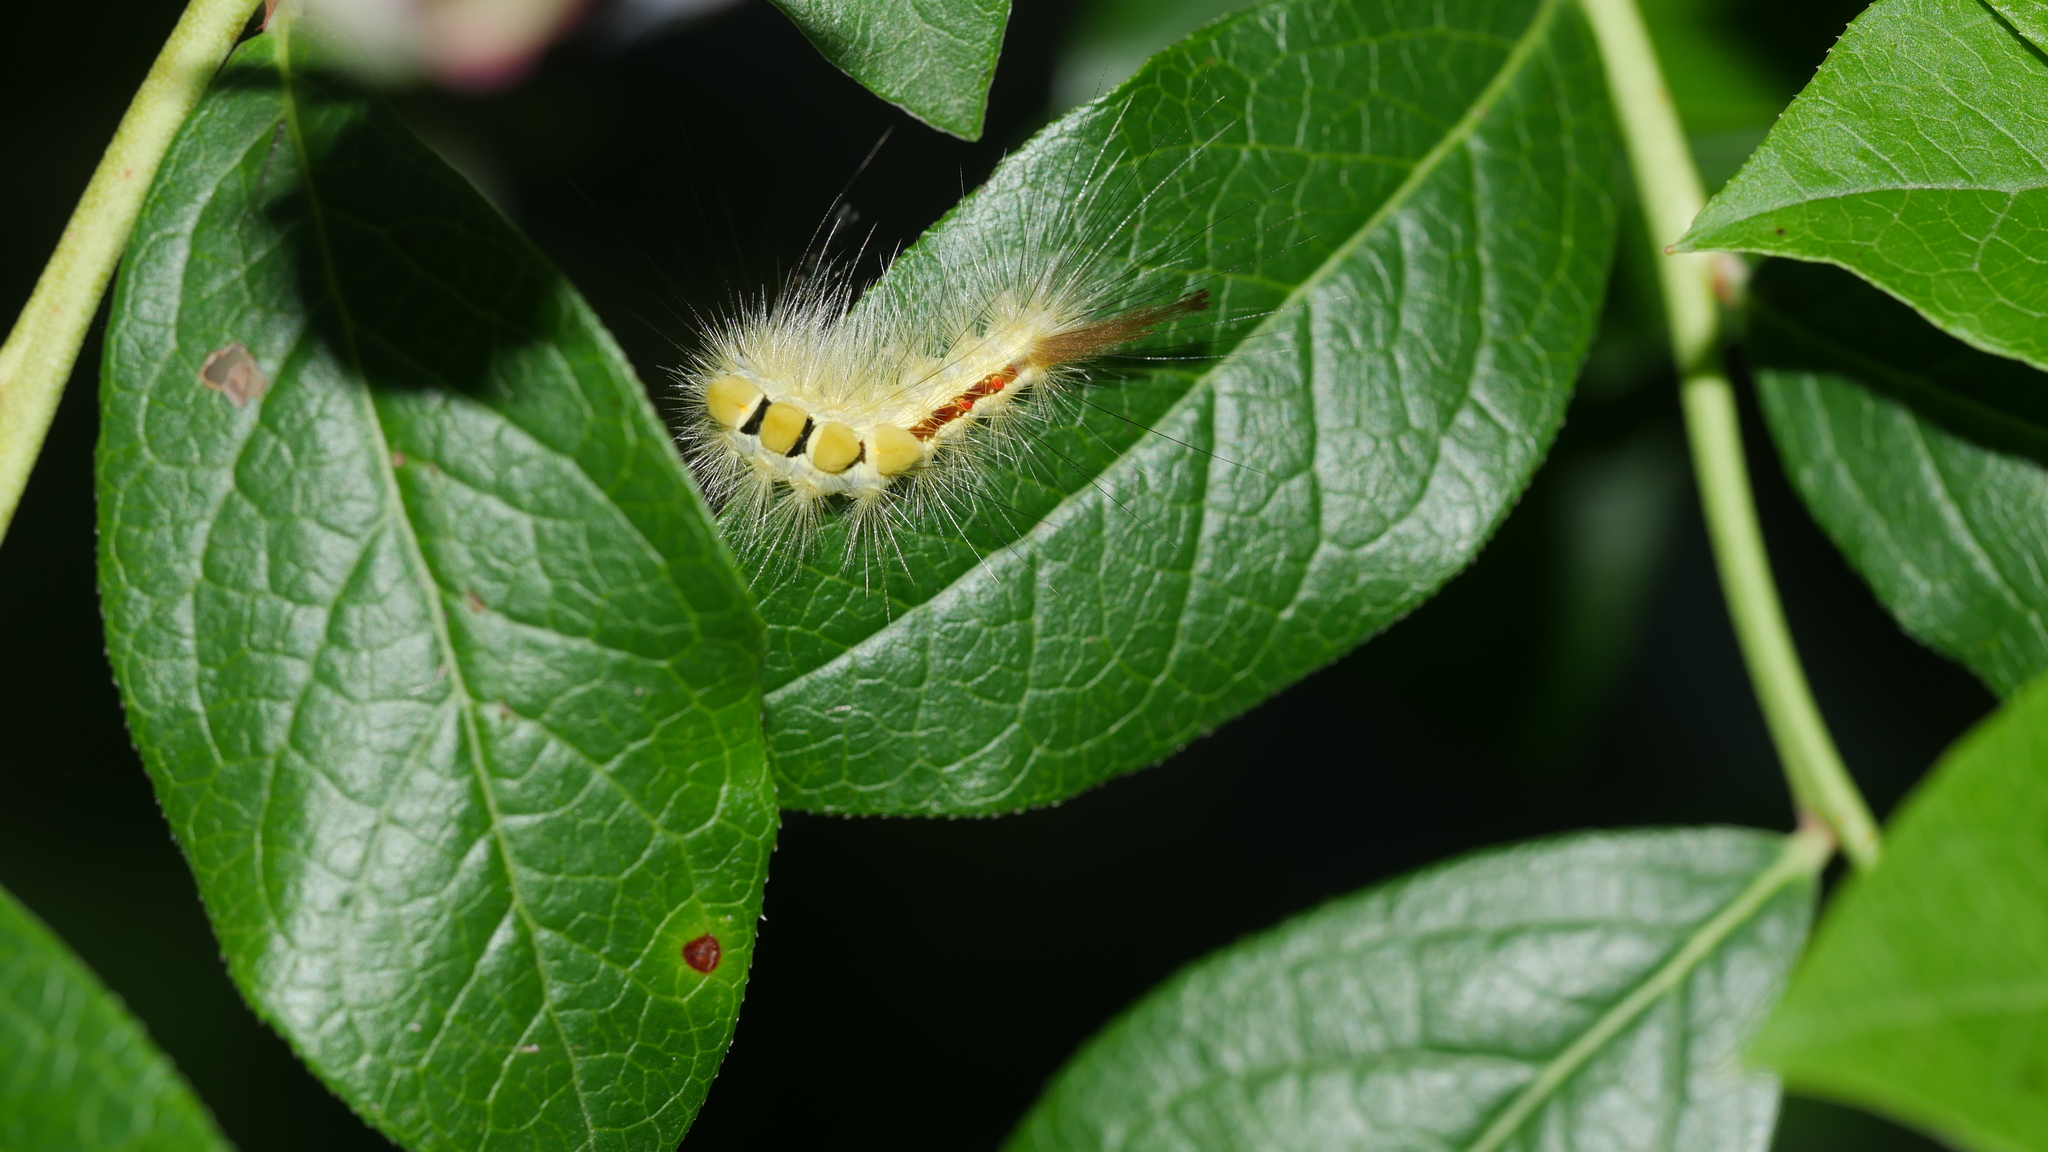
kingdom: Animalia
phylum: Arthropoda
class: Insecta
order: Lepidoptera
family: Erebidae
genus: Orgyia
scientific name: Orgyia leucostigma
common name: White-marked tussock moth
